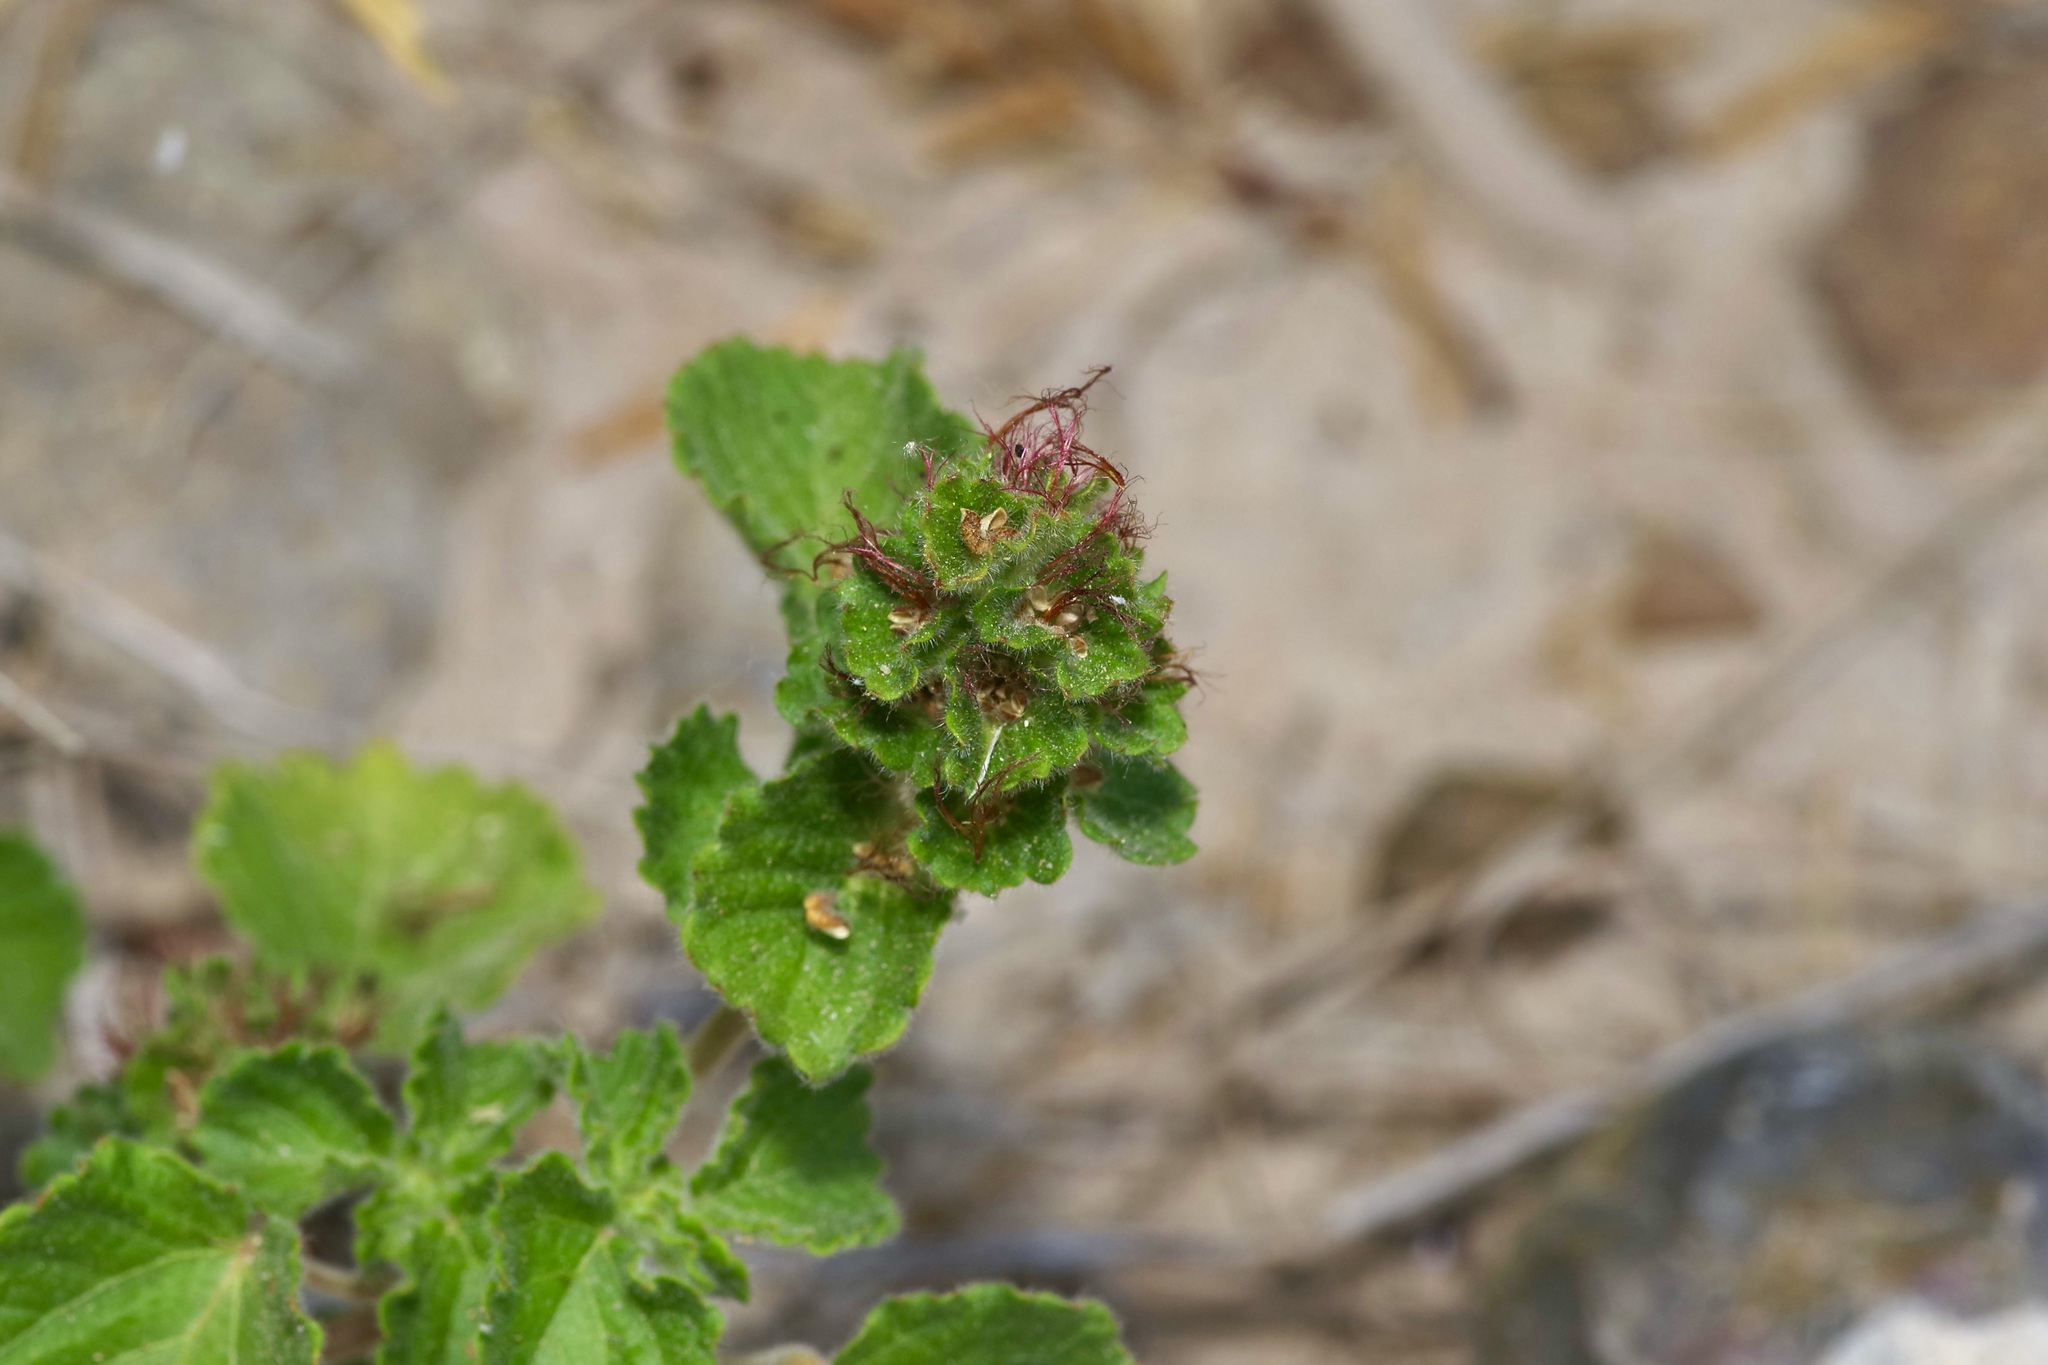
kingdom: Plantae
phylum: Tracheophyta
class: Magnoliopsida
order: Malpighiales
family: Euphorbiaceae
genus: Acalypha
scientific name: Acalypha monostachya
